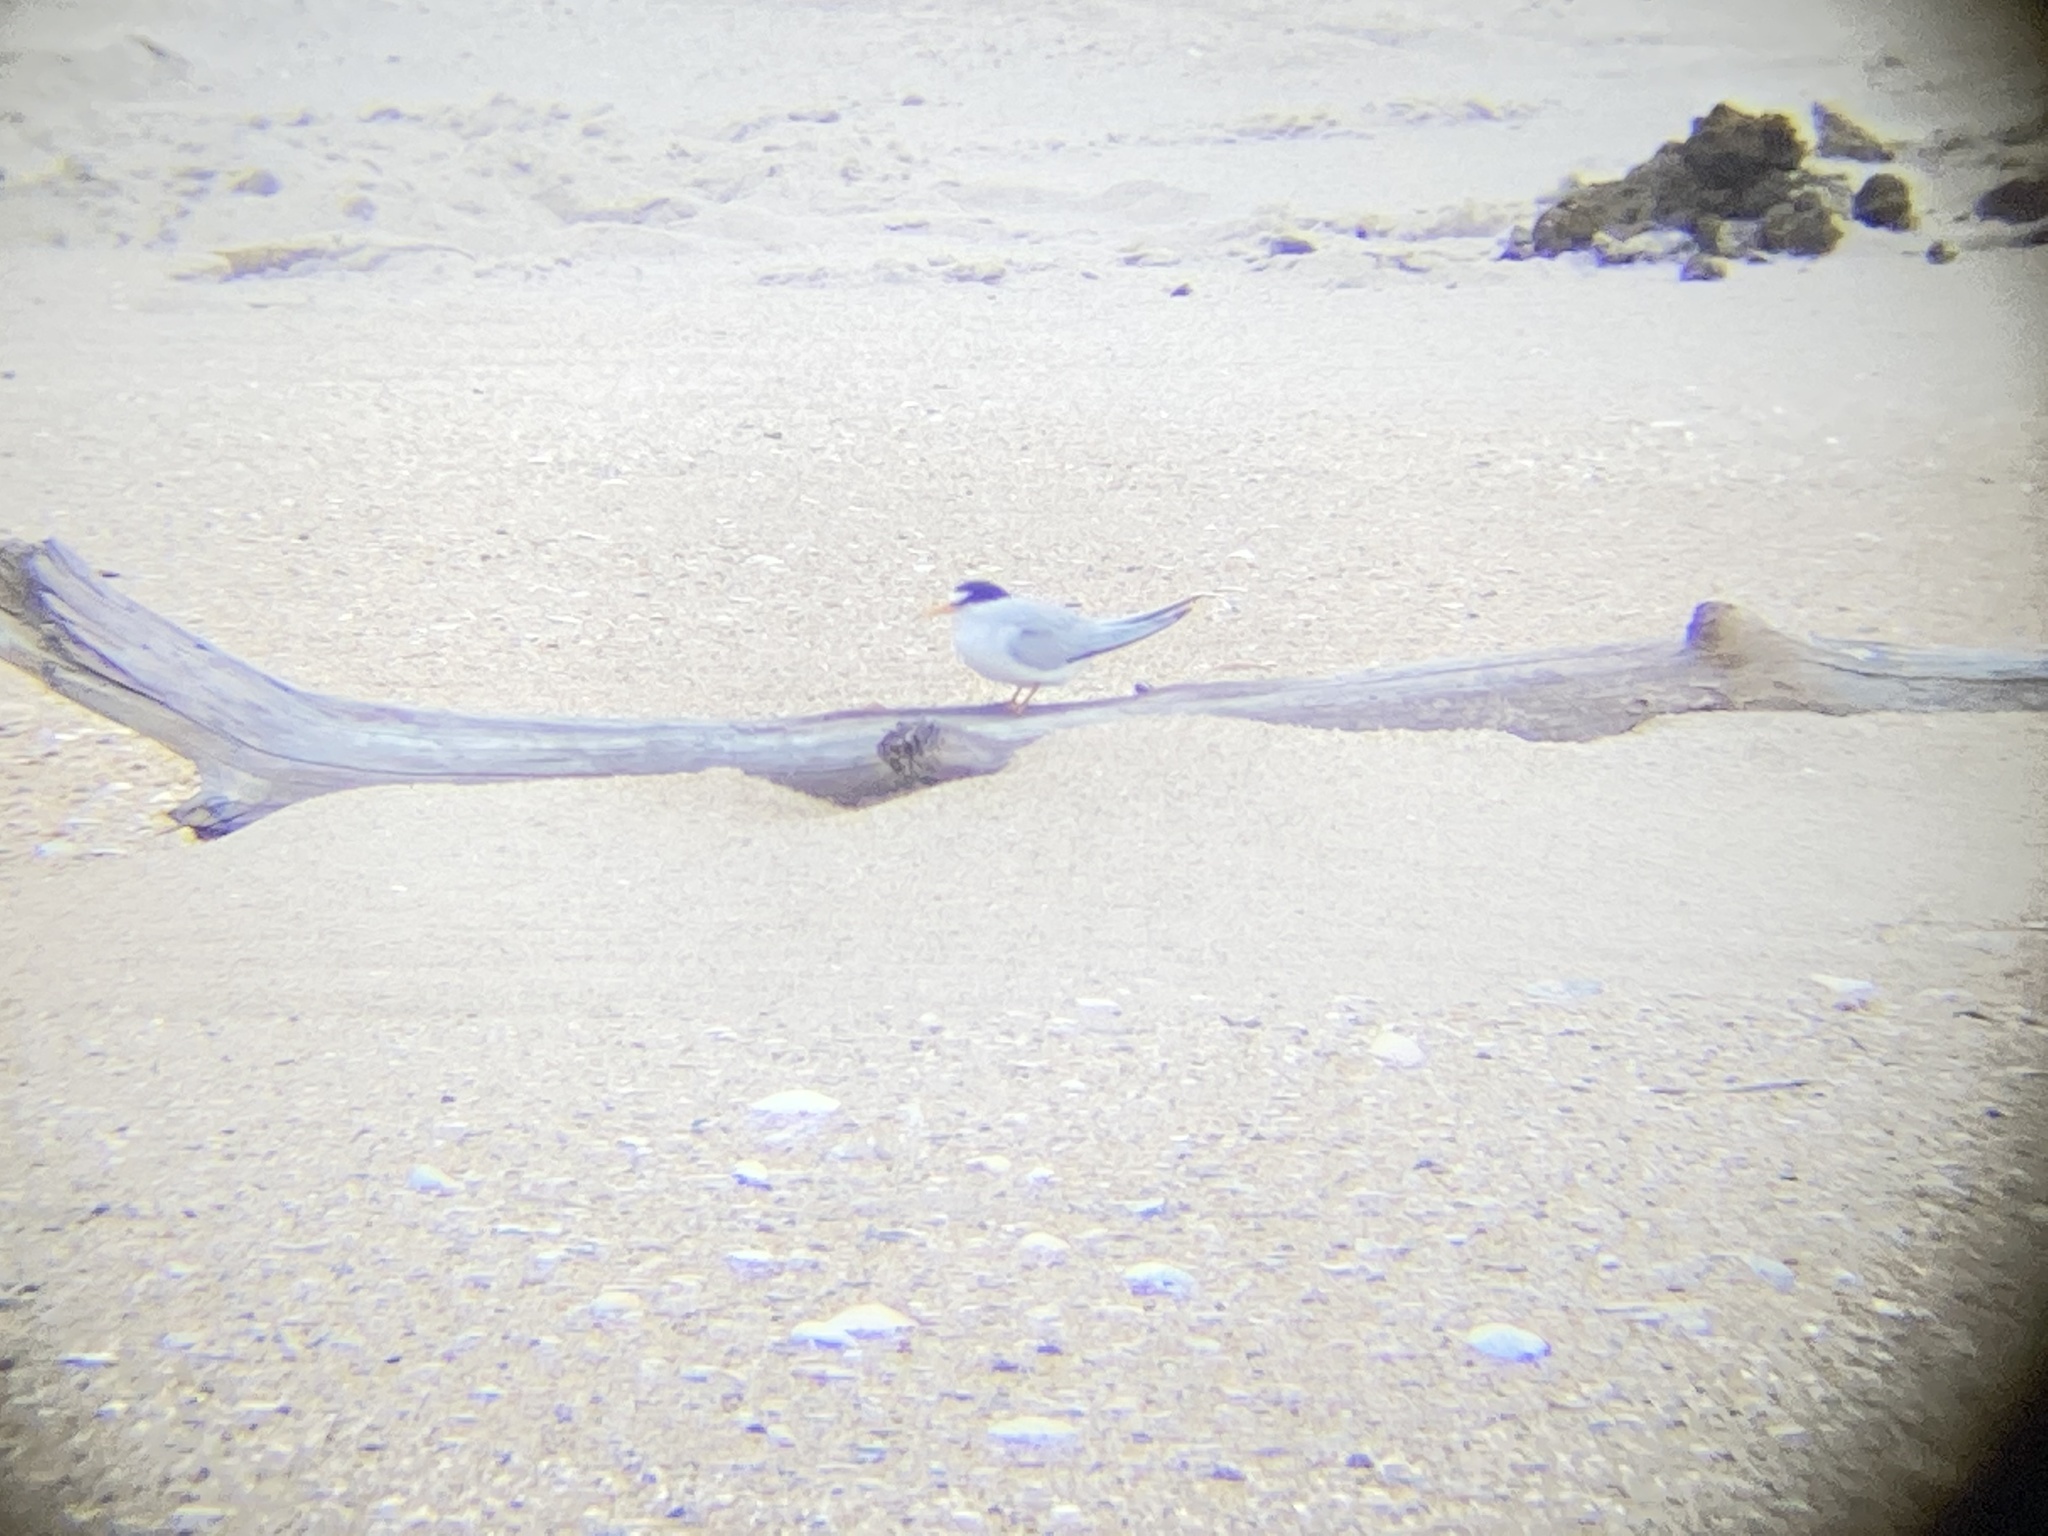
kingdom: Animalia
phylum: Chordata
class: Aves
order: Charadriiformes
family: Laridae
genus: Sternula
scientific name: Sternula antillarum
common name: Least tern
